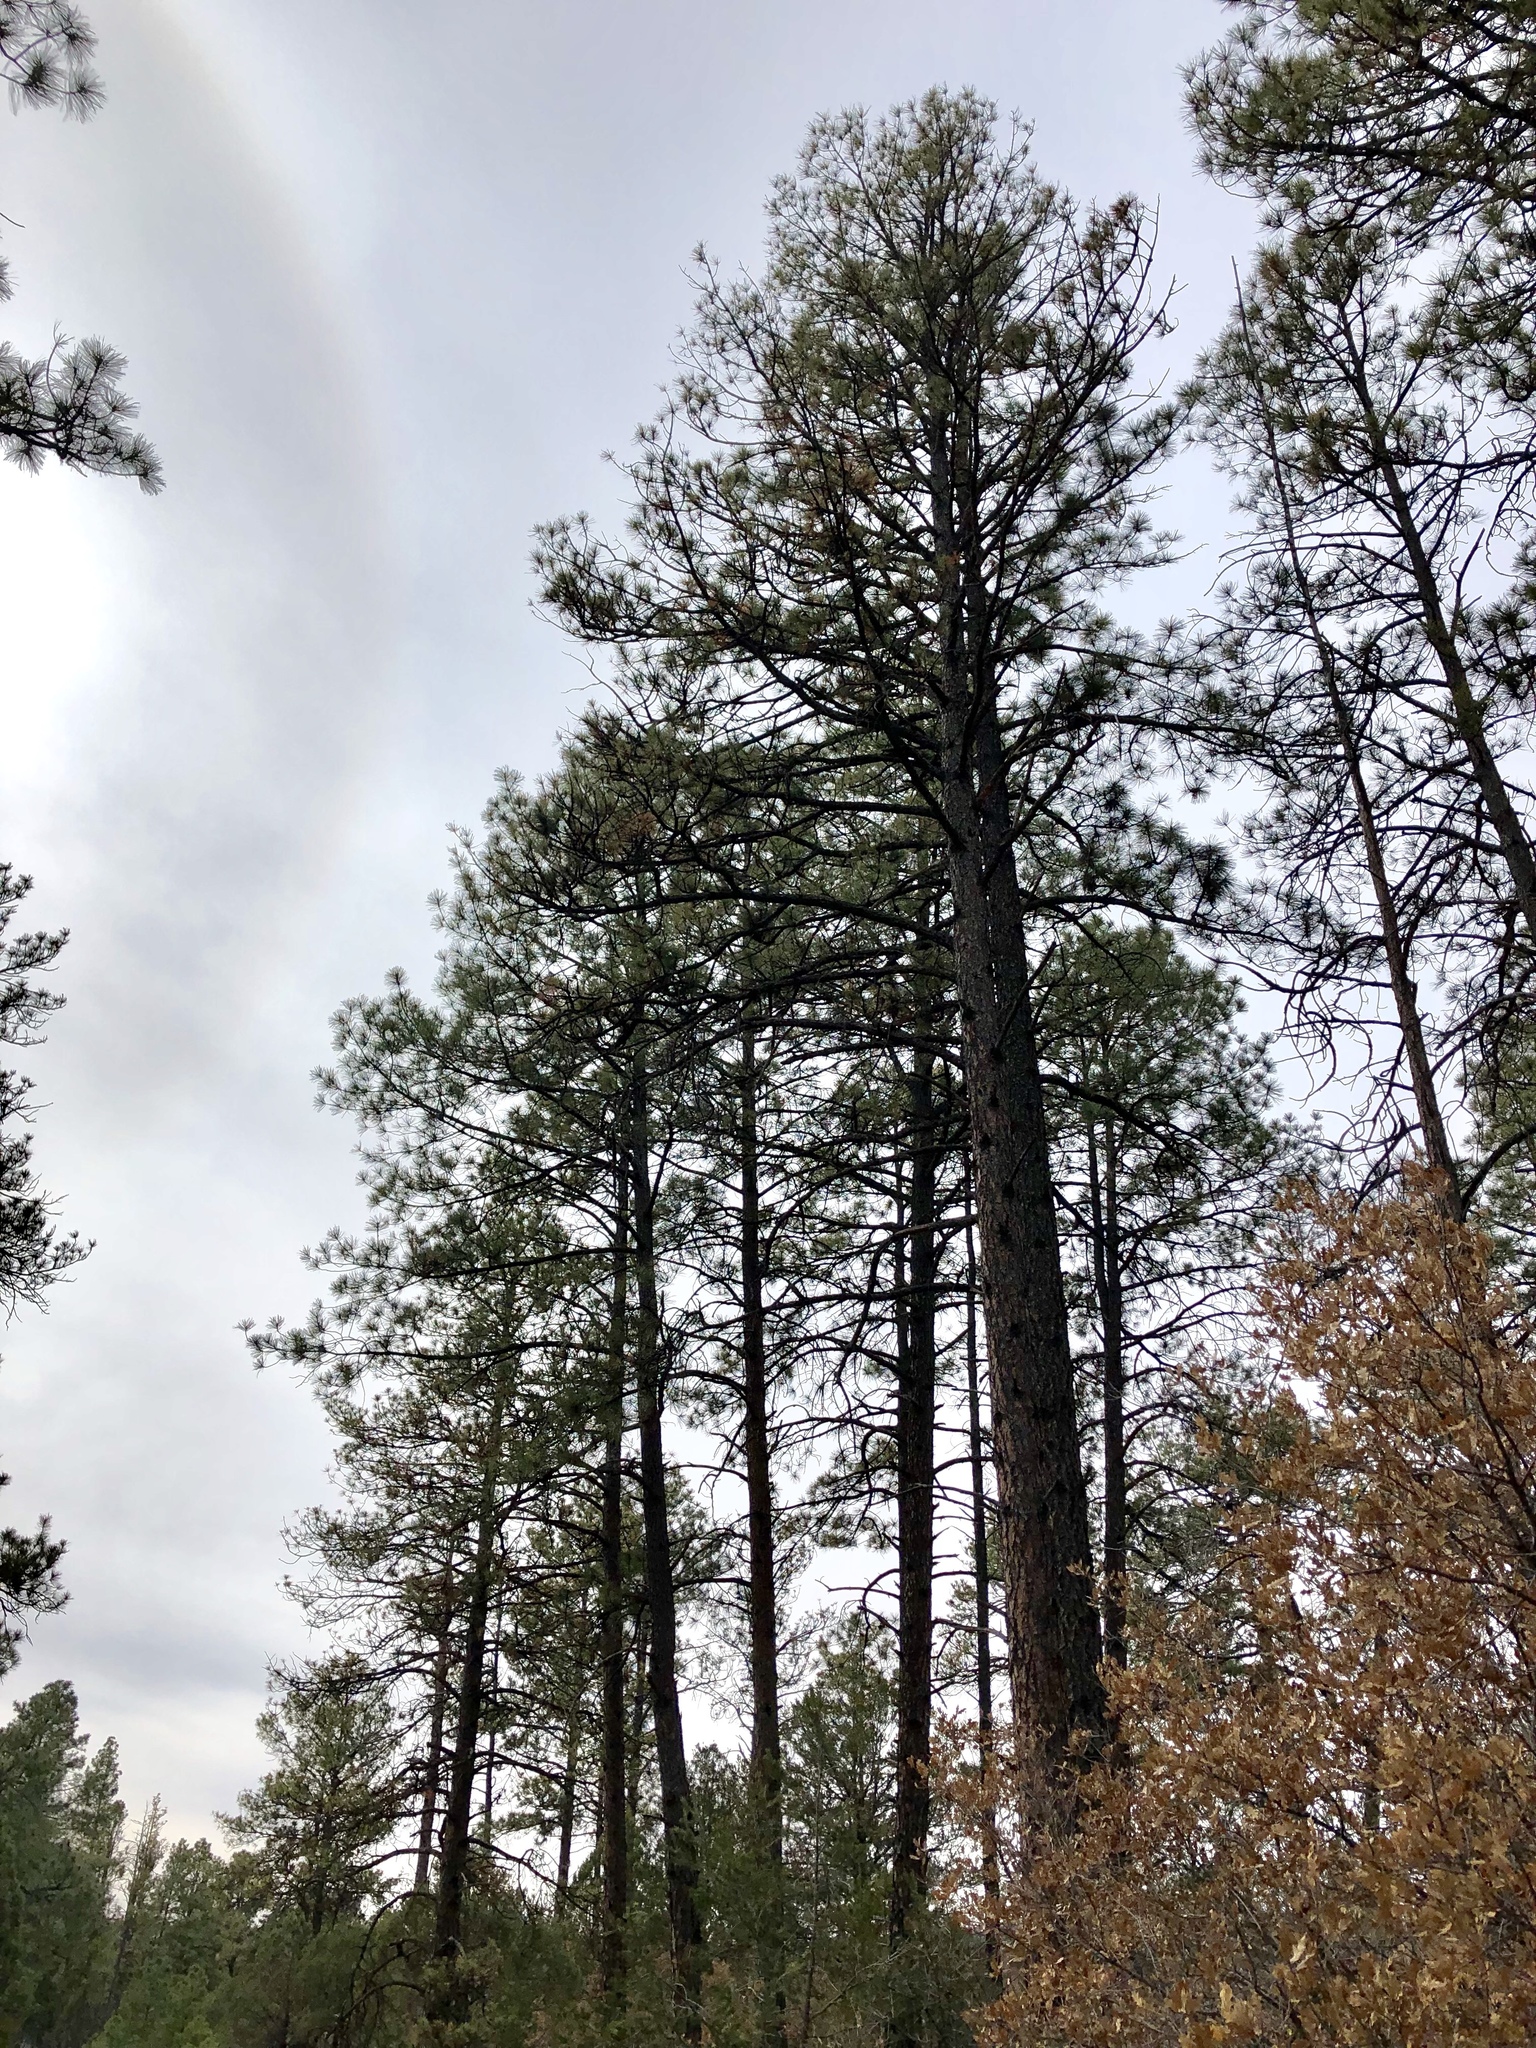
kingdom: Plantae
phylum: Tracheophyta
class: Pinopsida
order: Pinales
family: Pinaceae
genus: Pinus
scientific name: Pinus ponderosa
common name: Western yellow-pine
